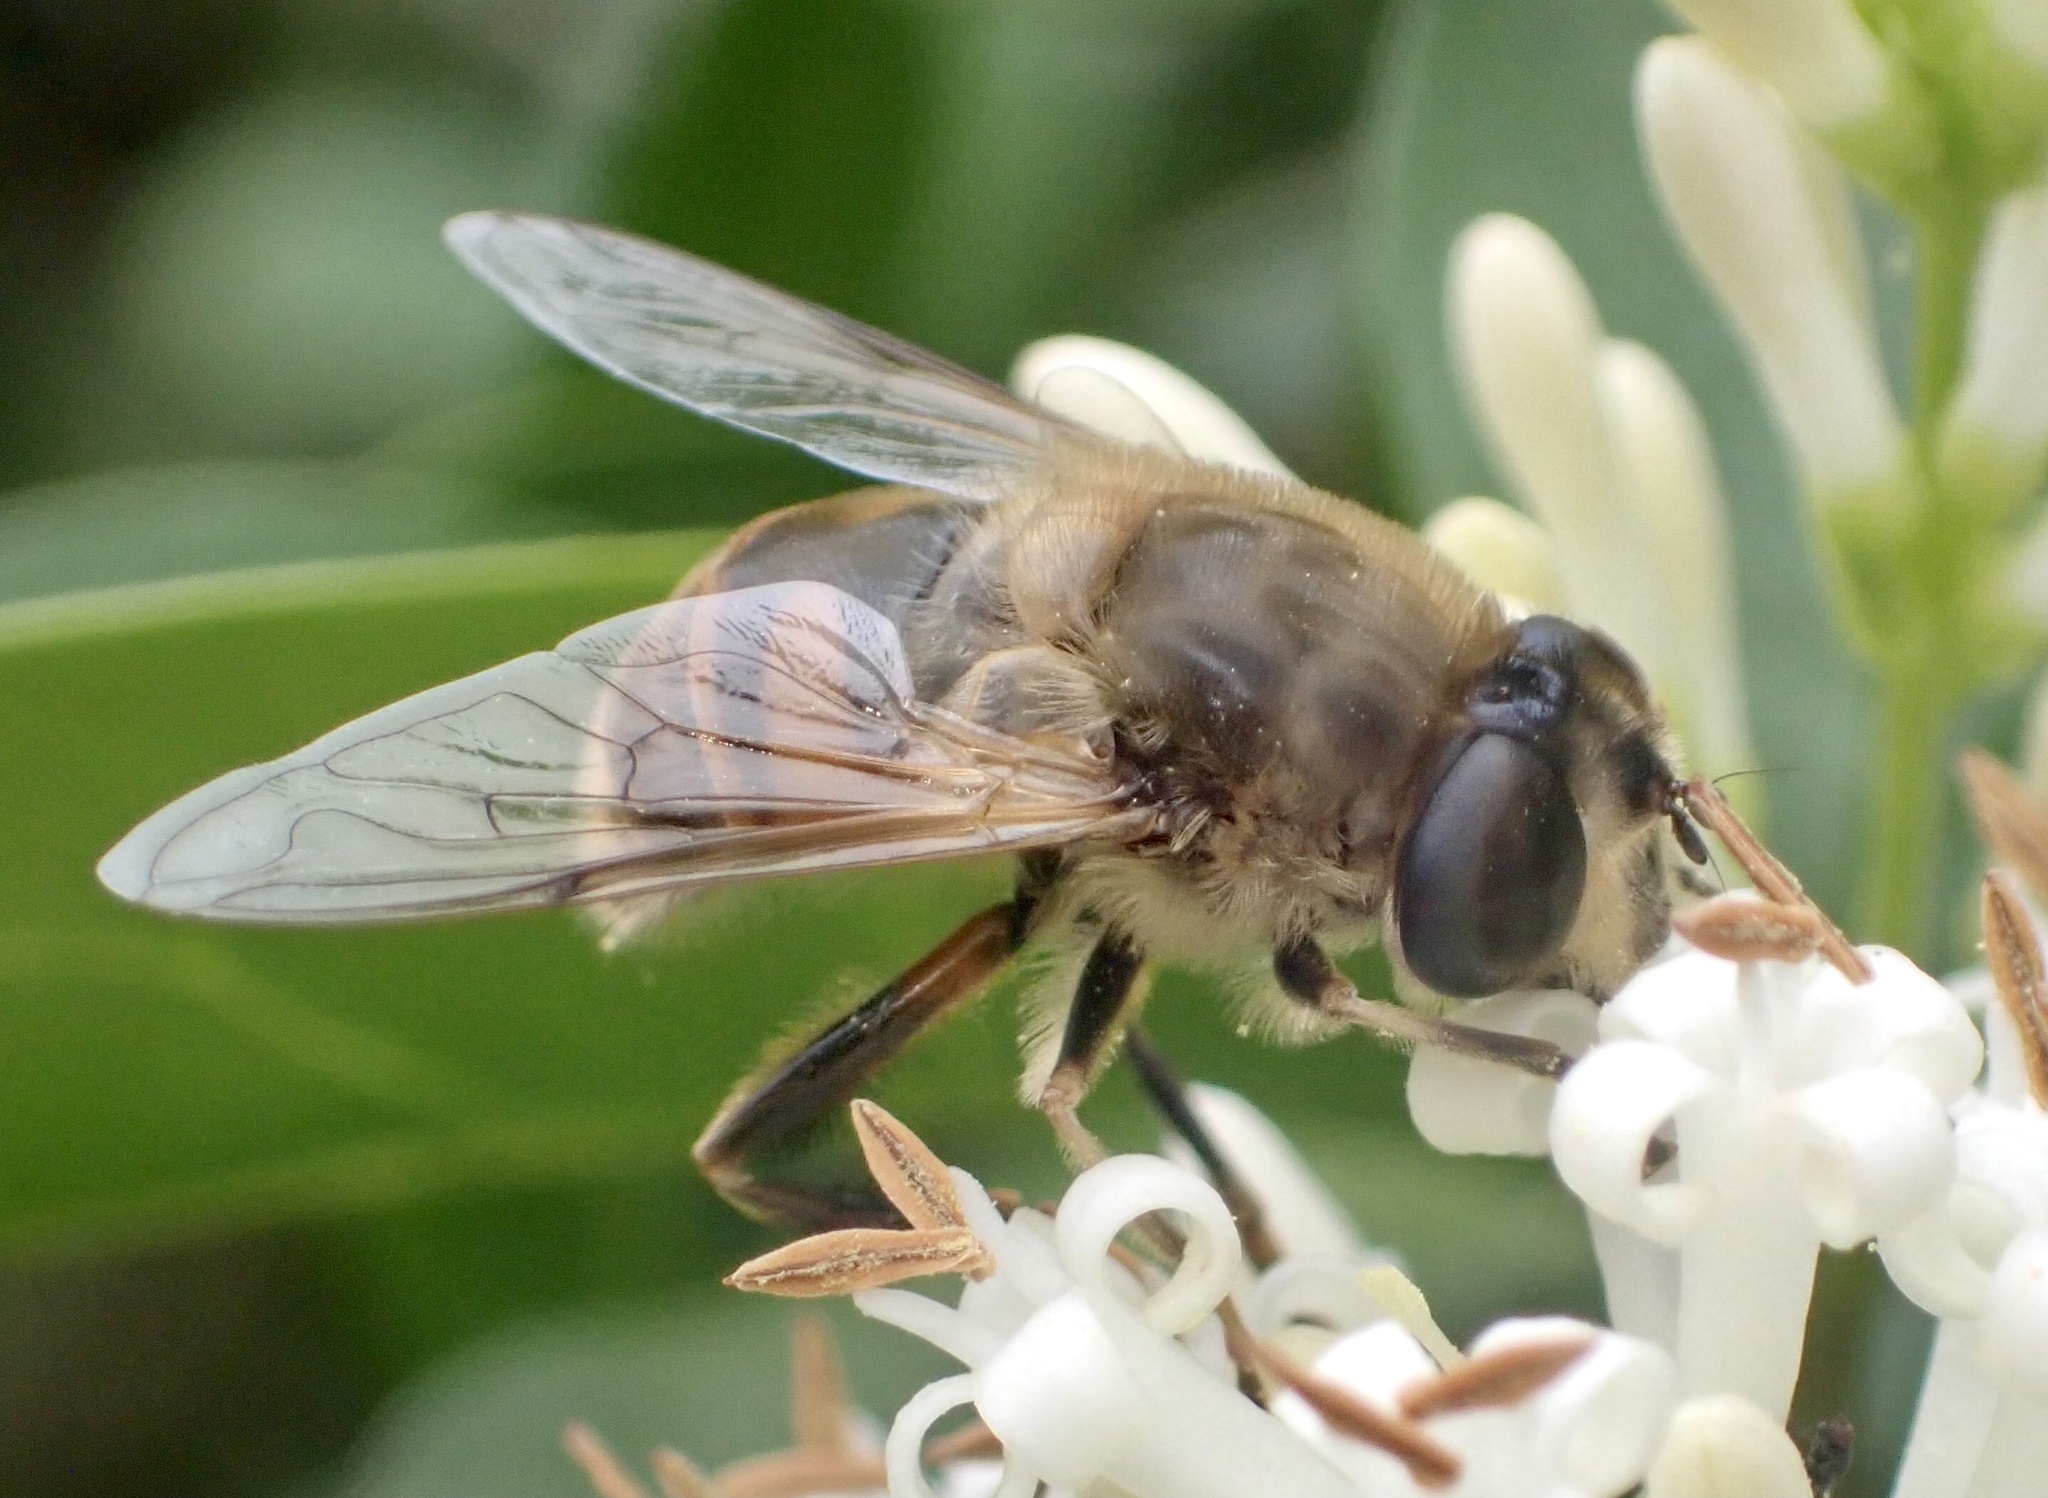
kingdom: Animalia
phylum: Arthropoda
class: Insecta
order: Diptera
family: Syrphidae
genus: Eristalis
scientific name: Eristalis tenax
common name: Drone fly
